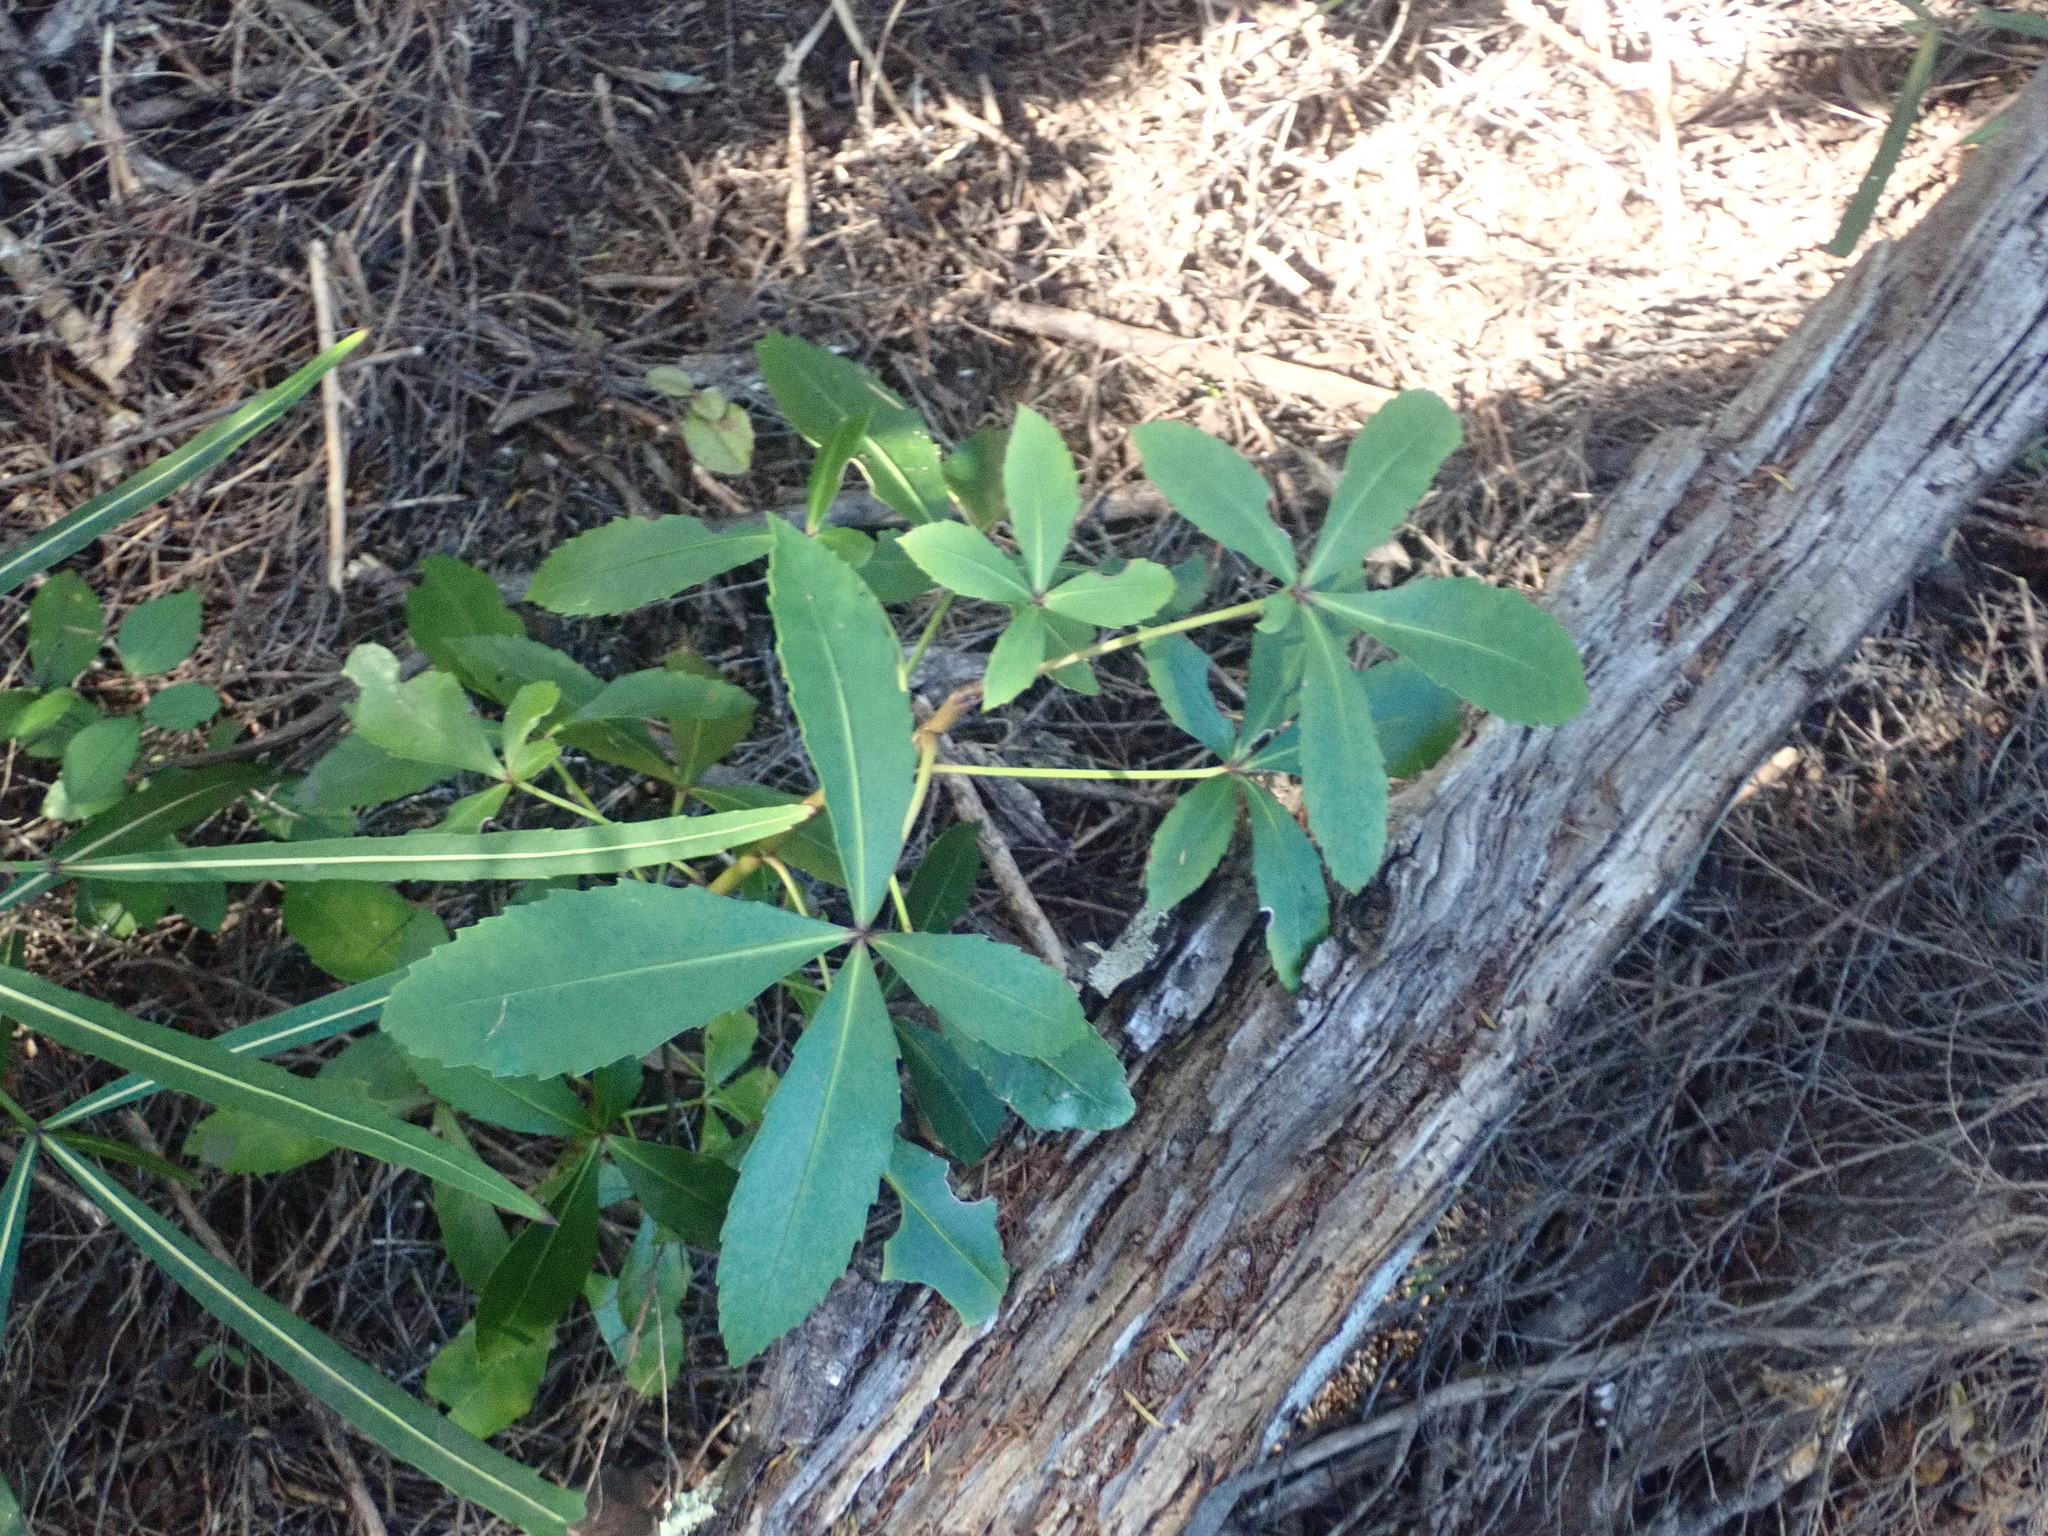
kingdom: Plantae
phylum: Tracheophyta
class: Magnoliopsida
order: Apiales
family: Araliaceae
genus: Pseudopanax
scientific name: Pseudopanax lessonii
